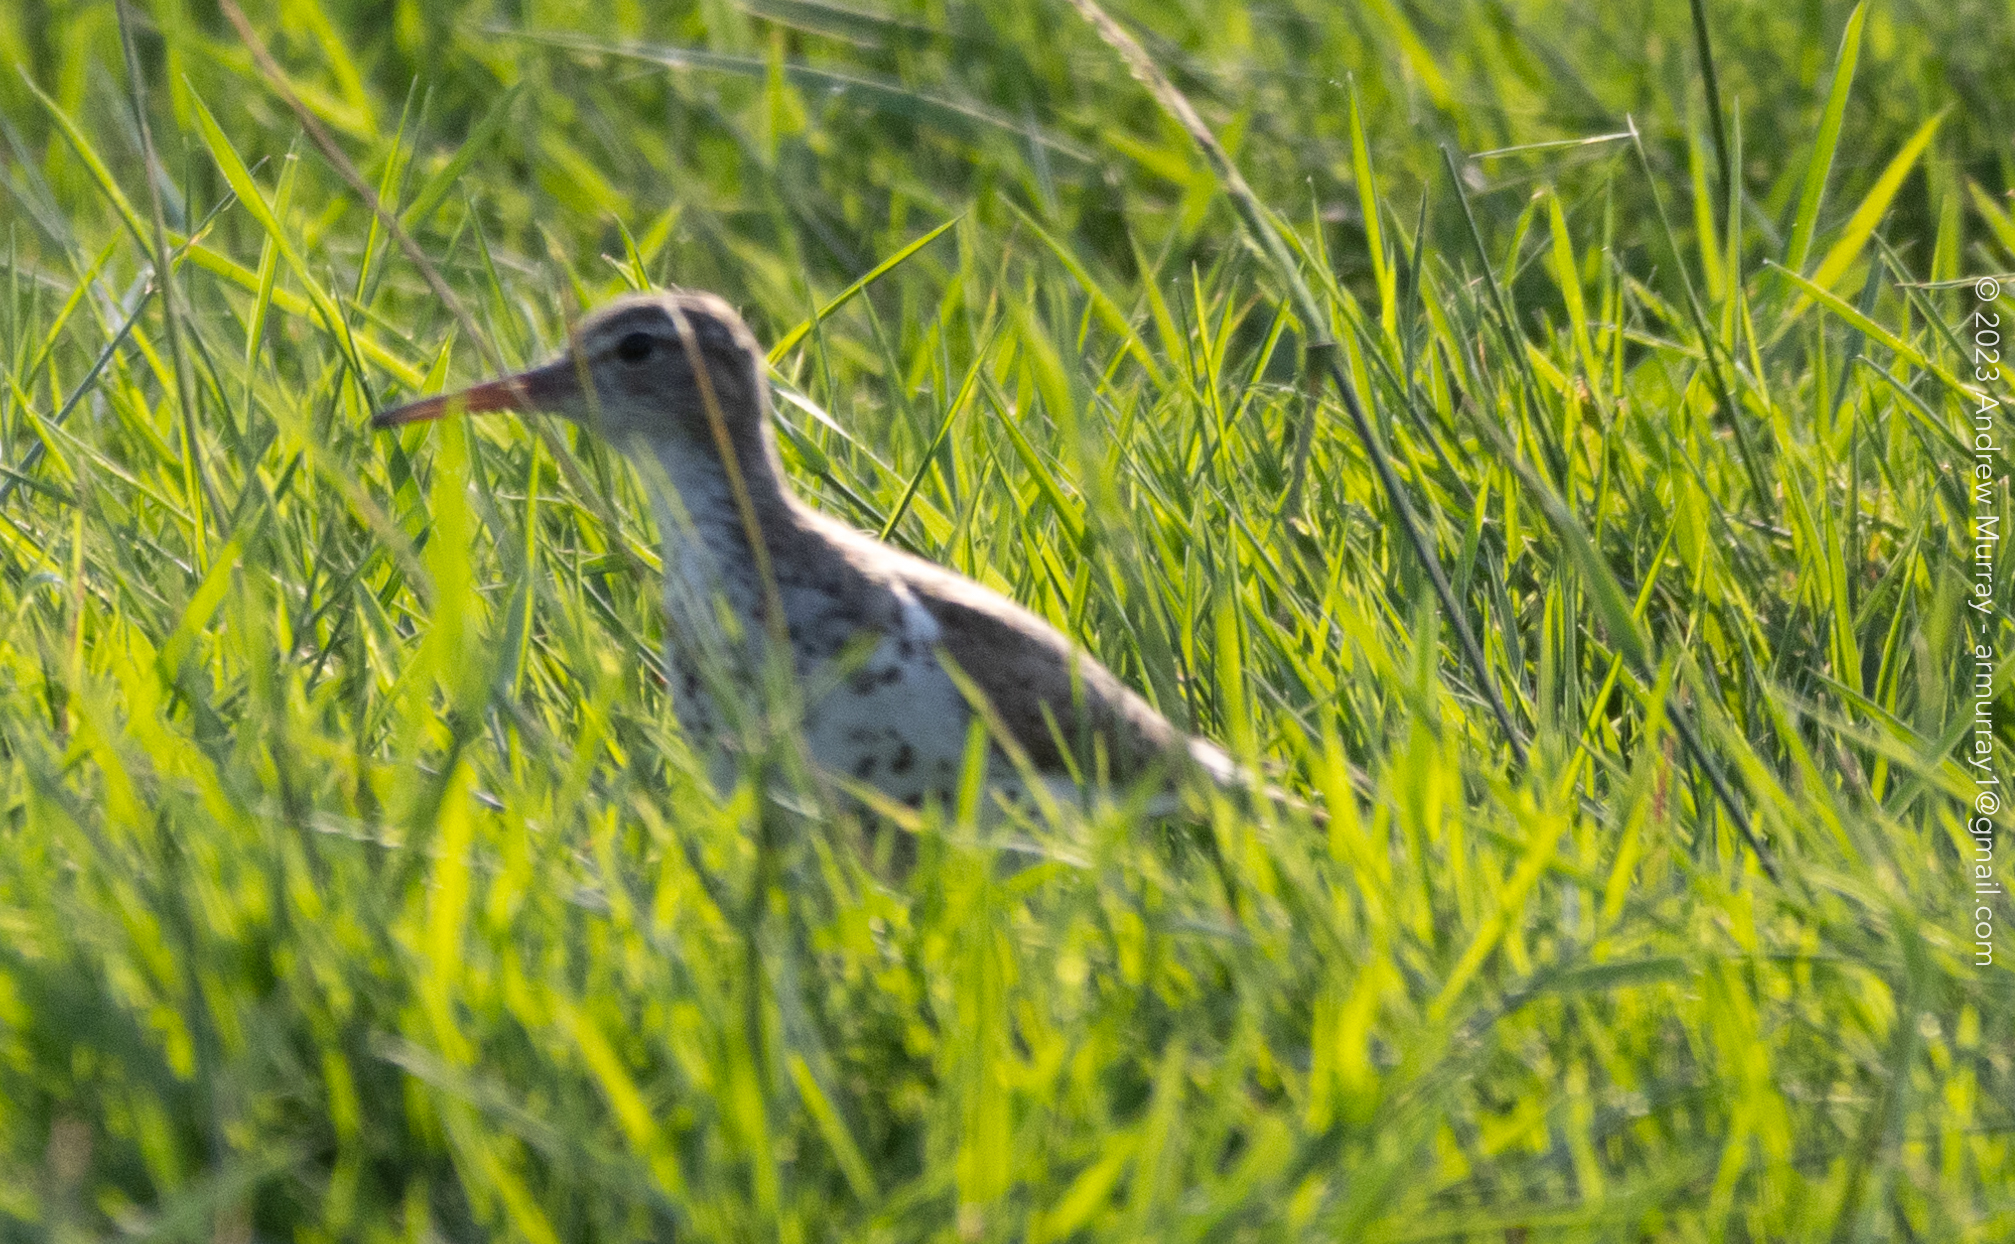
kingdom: Animalia
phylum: Chordata
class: Aves
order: Charadriiformes
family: Scolopacidae
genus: Actitis
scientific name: Actitis macularius
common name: Spotted sandpiper
